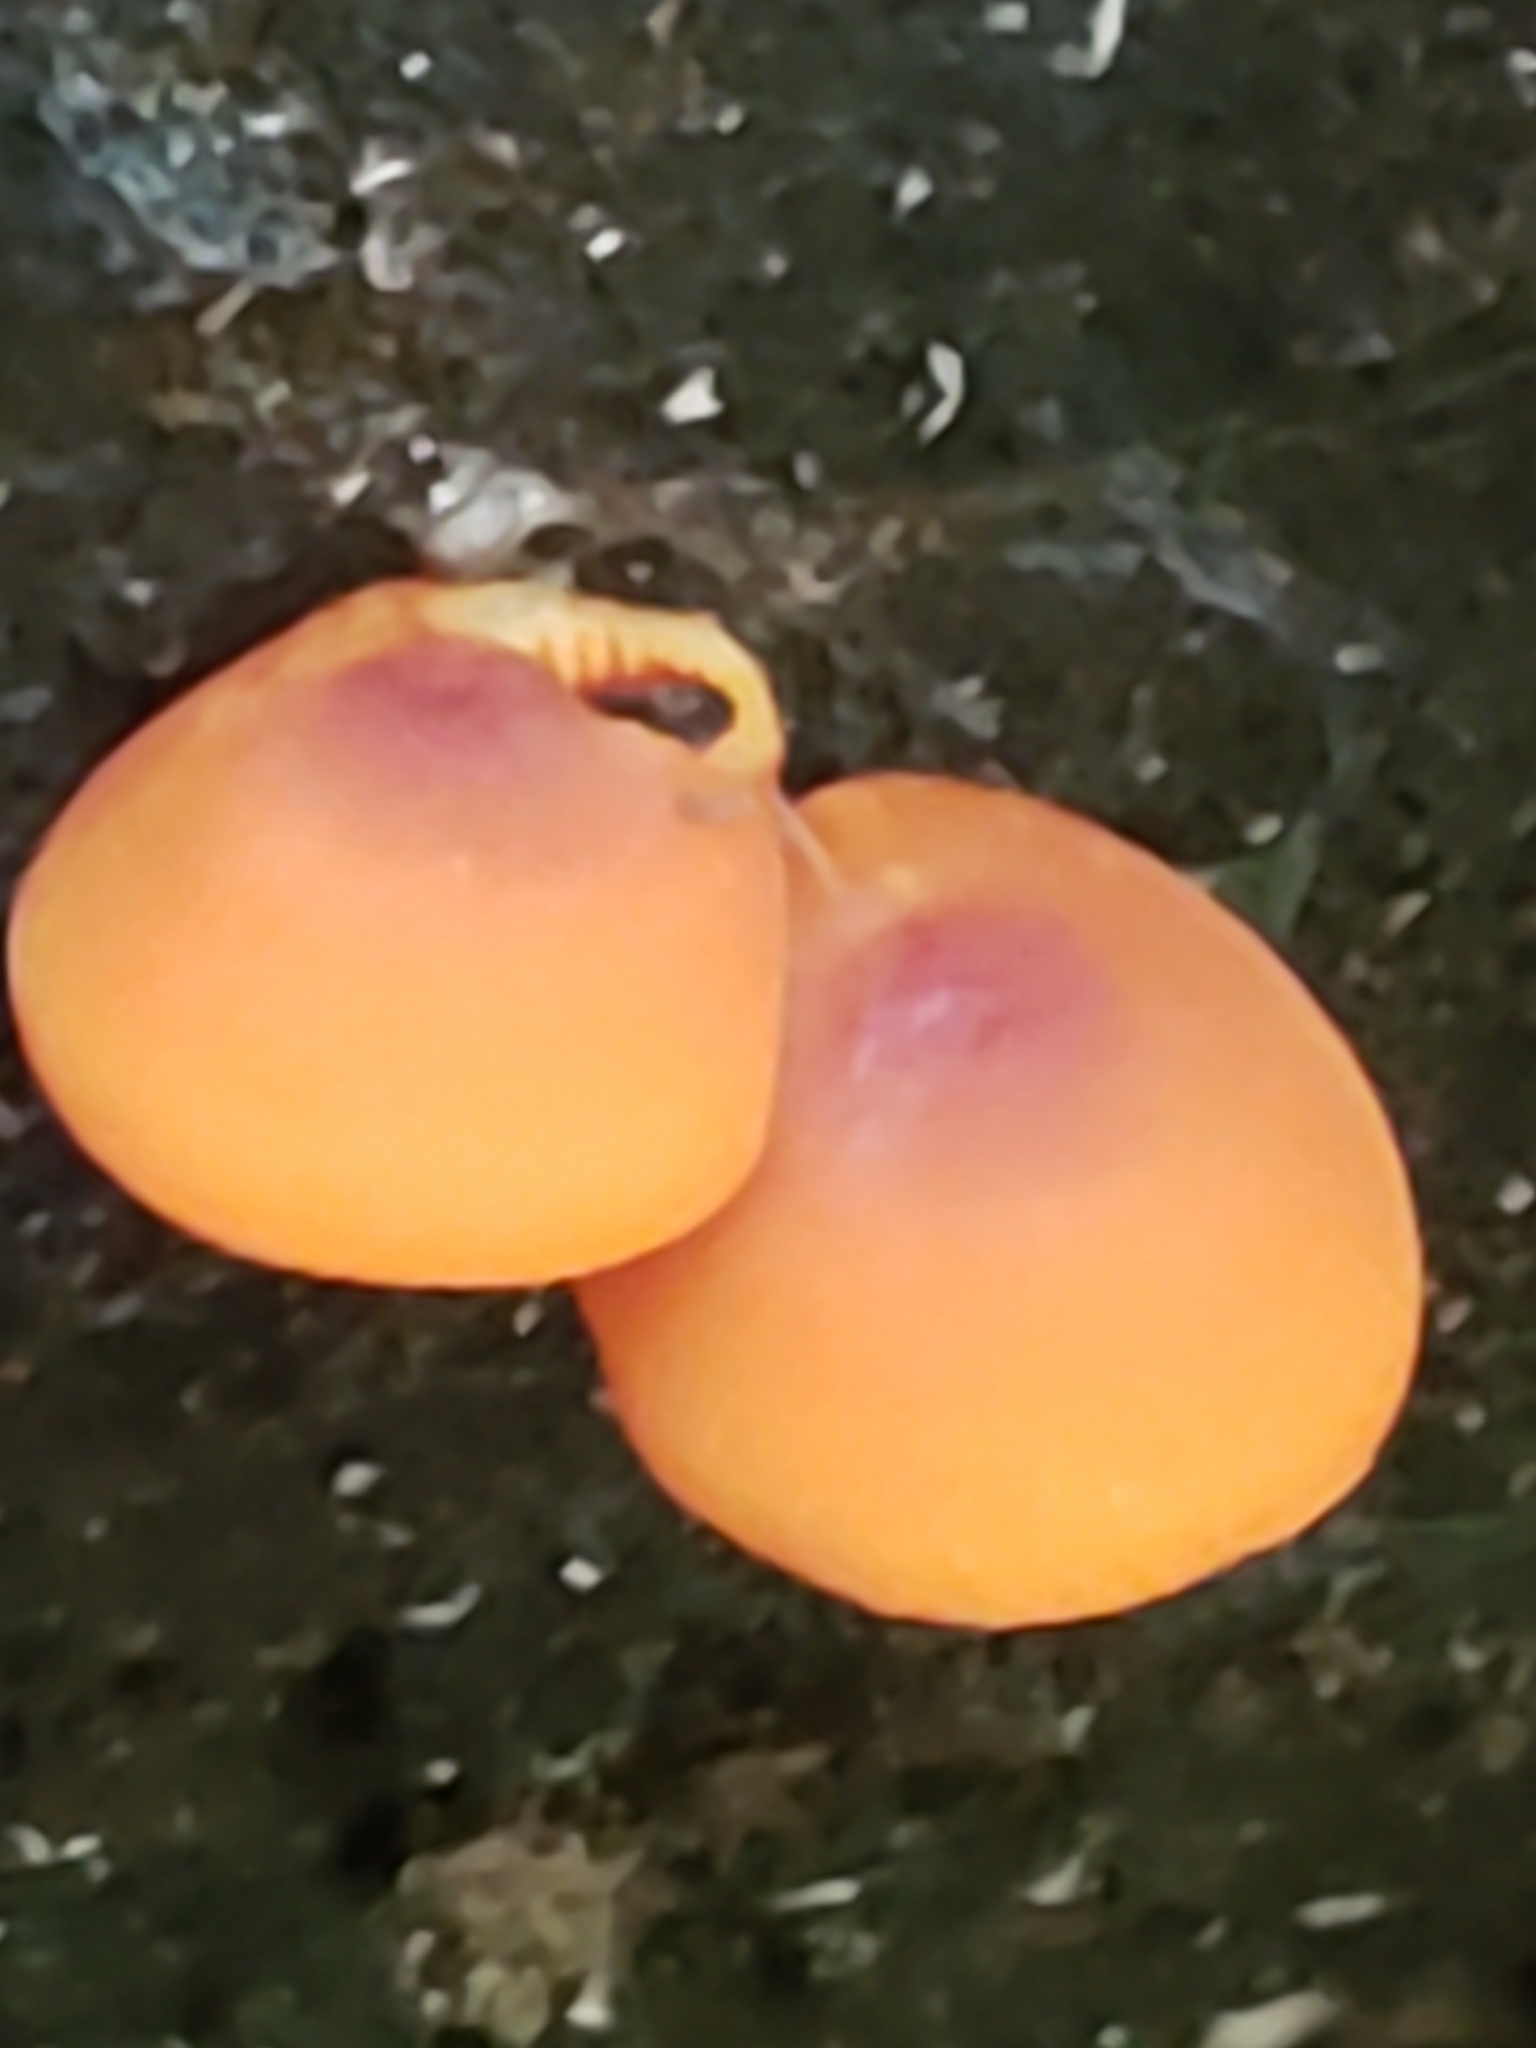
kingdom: Fungi
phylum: Basidiomycota
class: Agaricomycetes
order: Agaricales
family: Mycenaceae
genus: Mycena
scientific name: Mycena leaiana
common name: Orange mycena
